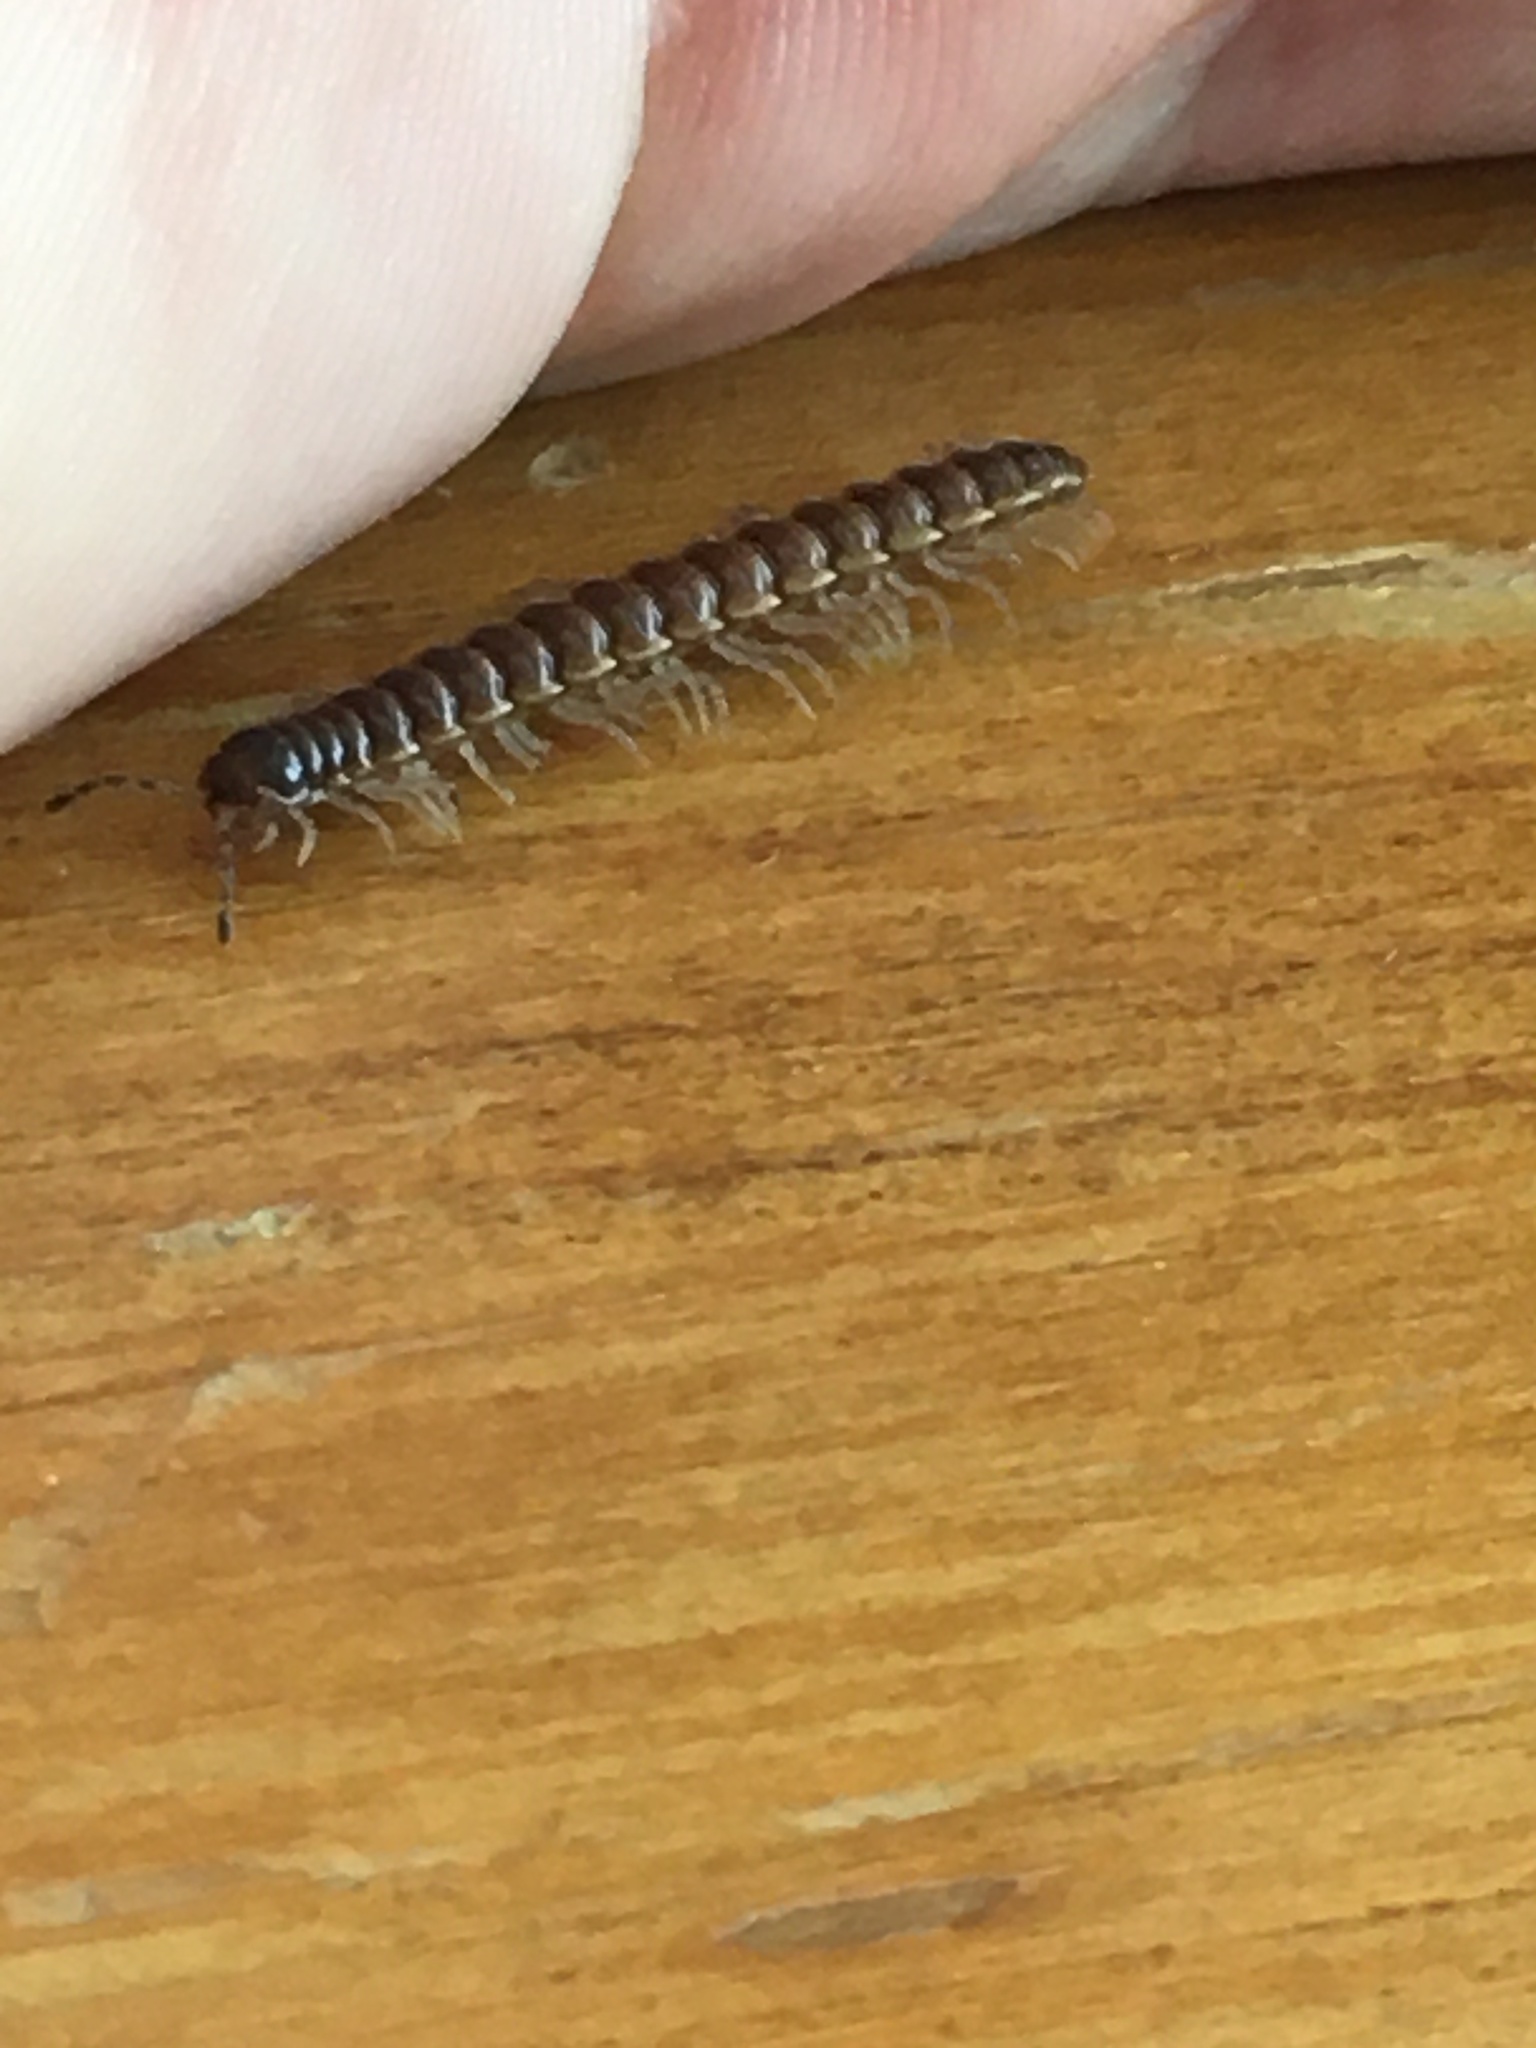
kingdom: Animalia
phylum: Arthropoda
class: Diplopoda
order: Polydesmida
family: Paradoxosomatidae
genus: Oxidus
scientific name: Oxidus gracilis
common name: Greenhouse millipede
